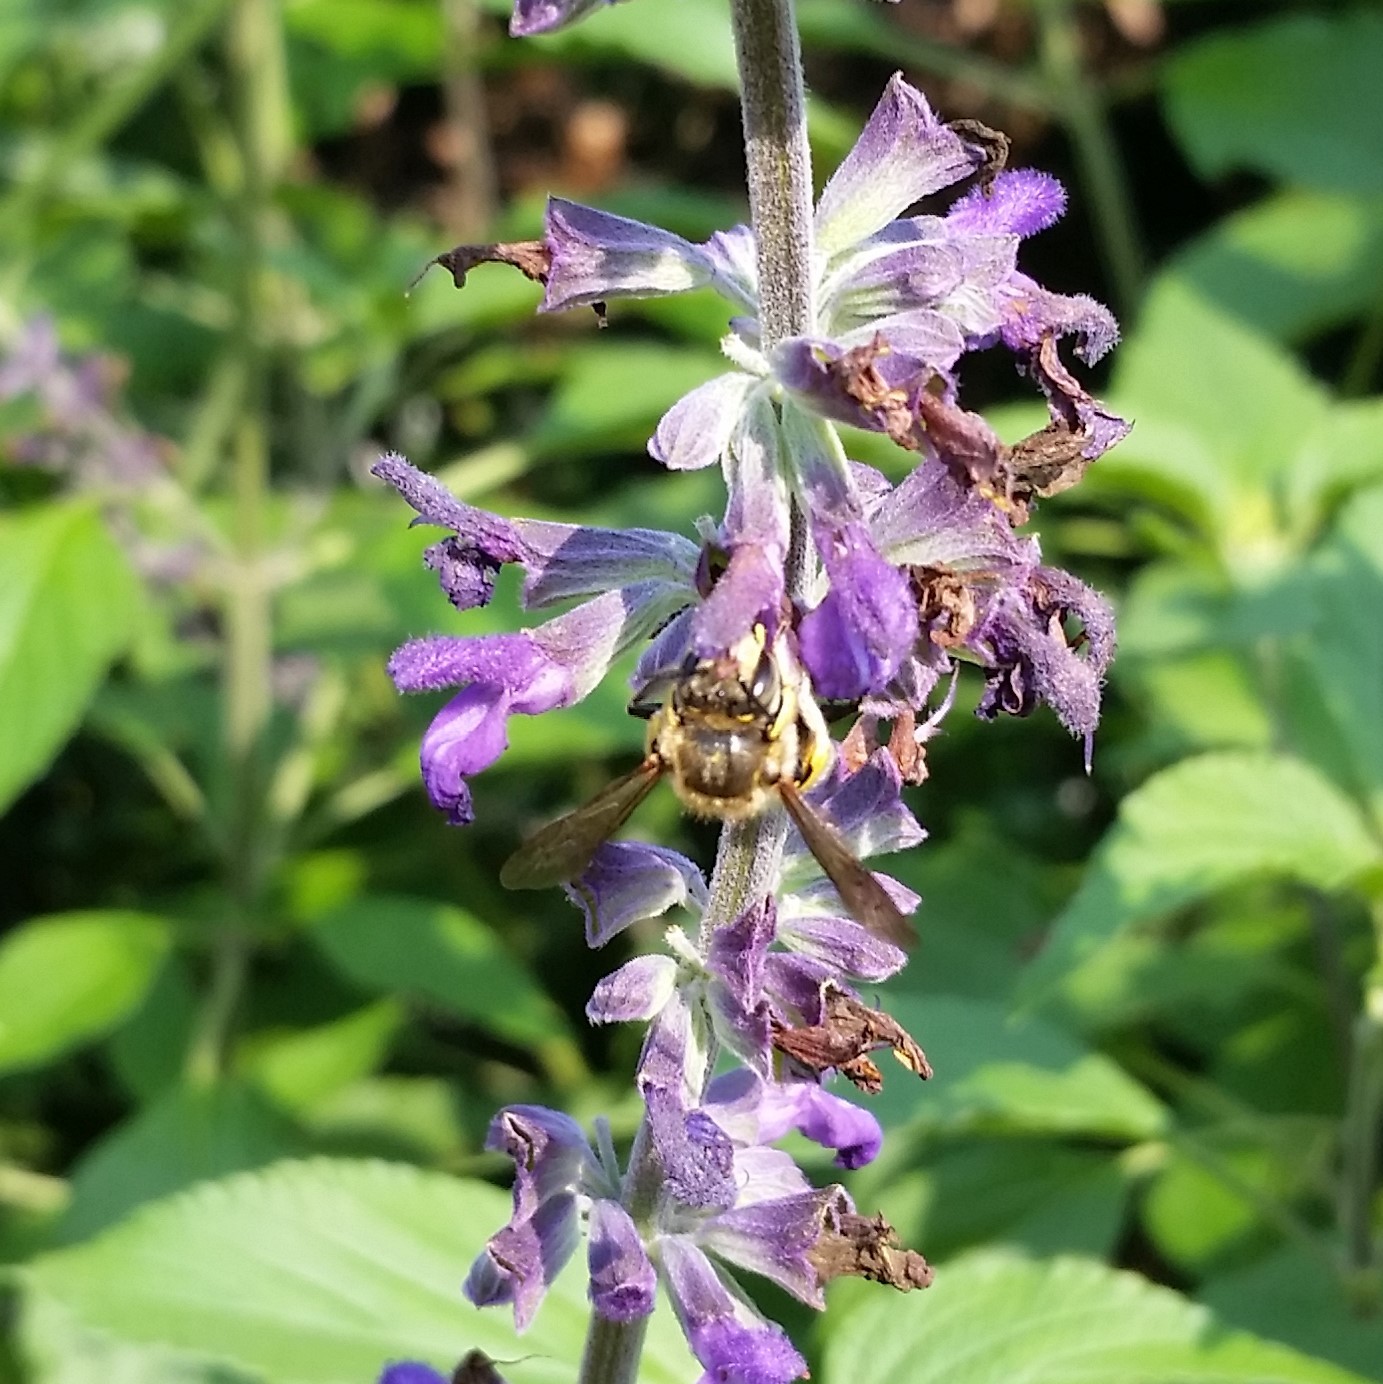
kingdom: Animalia
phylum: Arthropoda
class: Insecta
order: Hymenoptera
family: Megachilidae
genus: Anthidium
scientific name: Anthidium manicatum
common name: Wool carder bee
